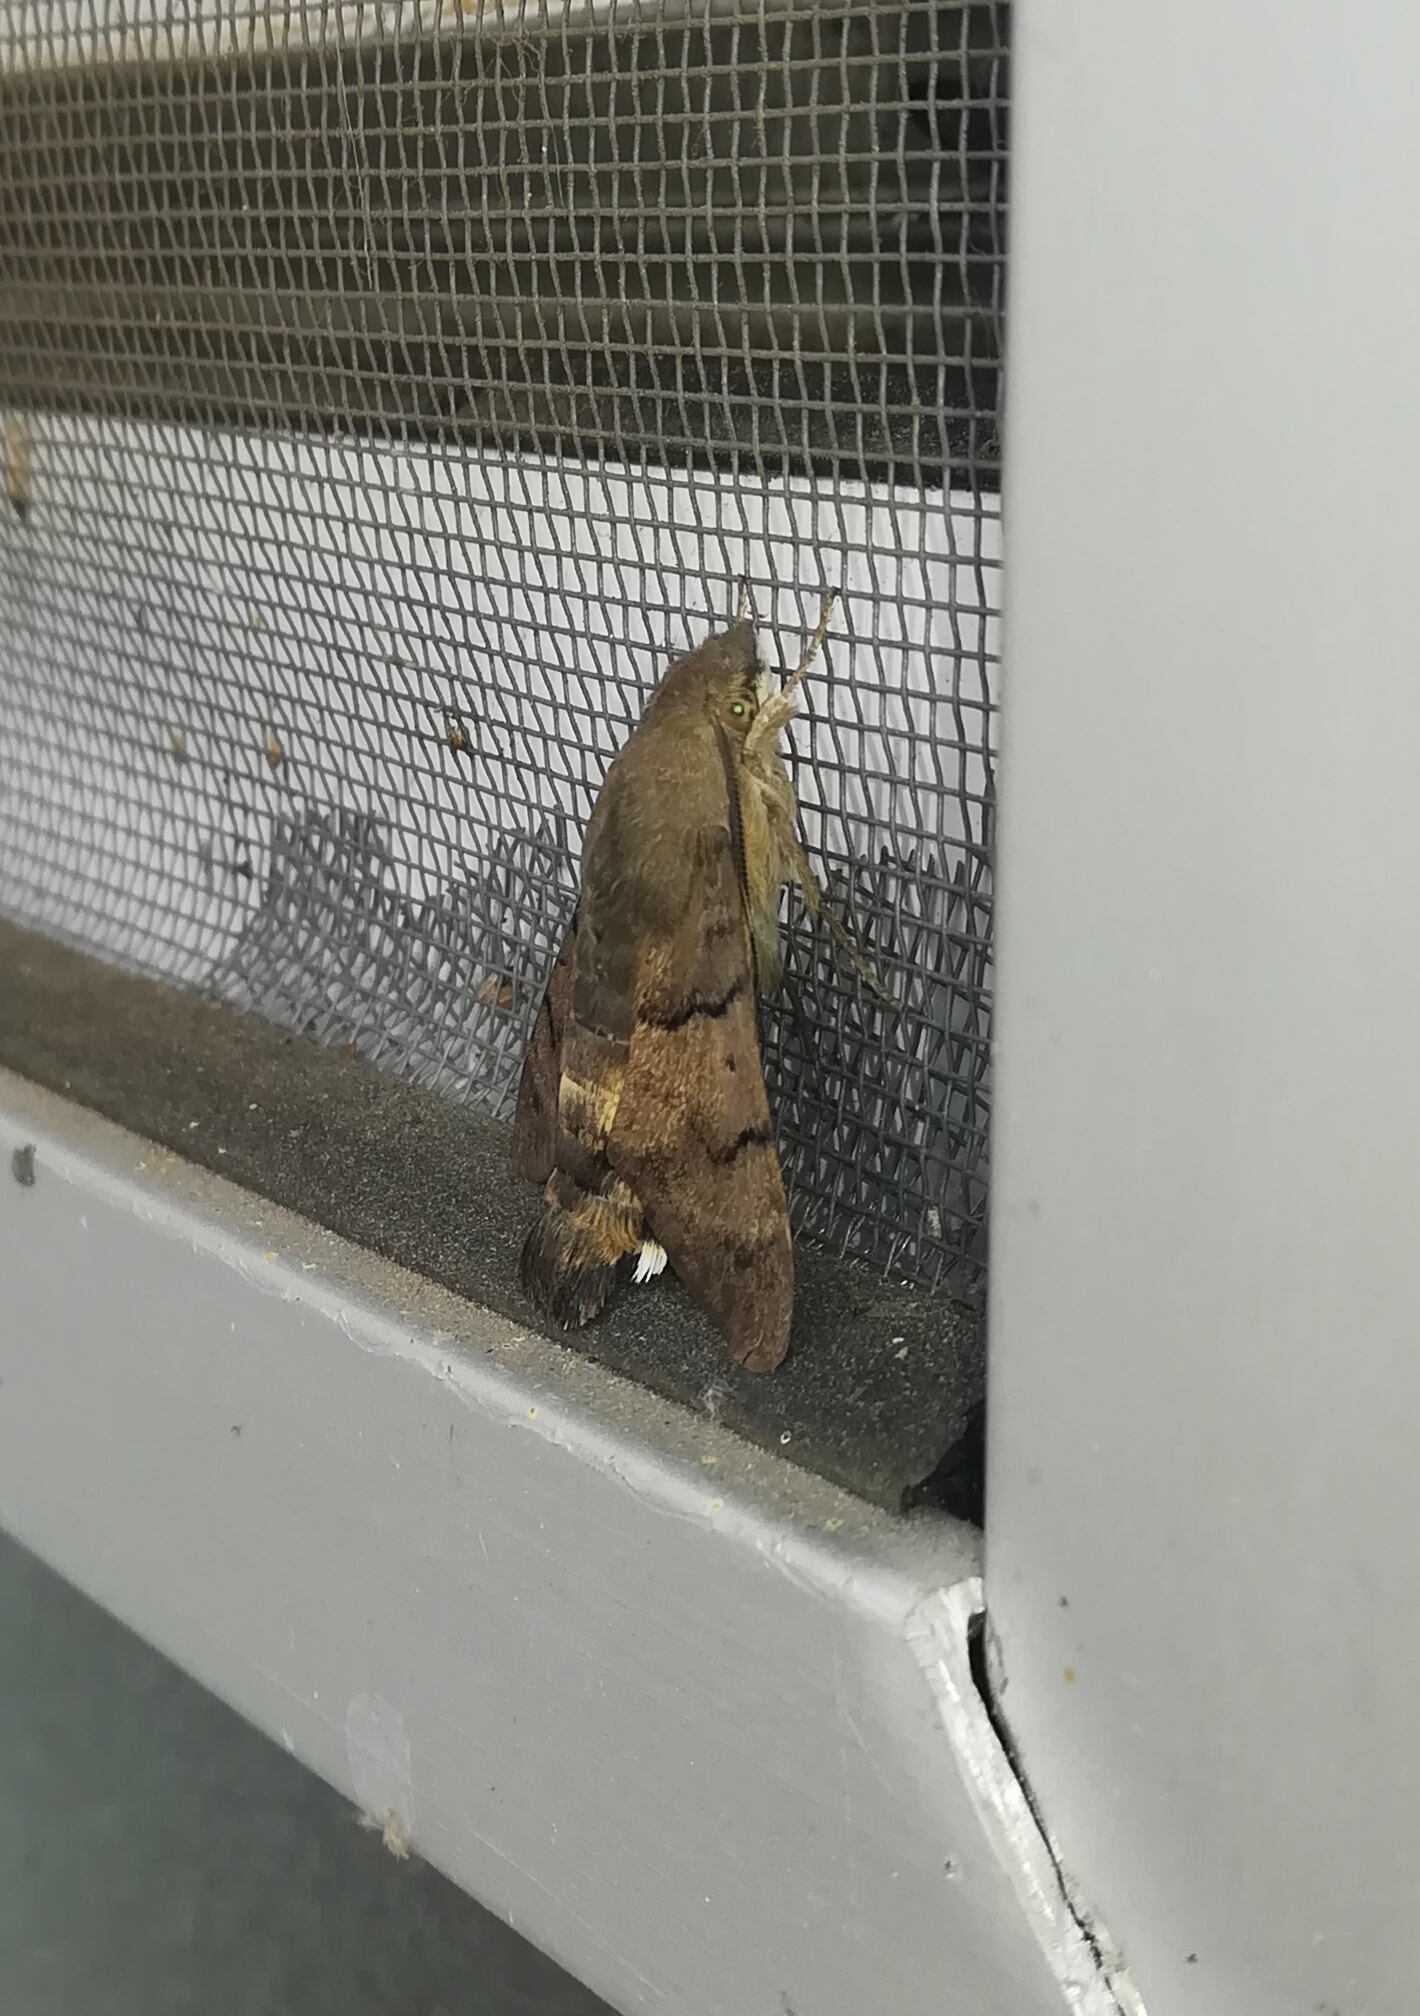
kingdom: Animalia
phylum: Arthropoda
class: Insecta
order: Lepidoptera
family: Sphingidae
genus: Macroglossum
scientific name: Macroglossum stellatarum
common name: Humming-bird hawk-moth
